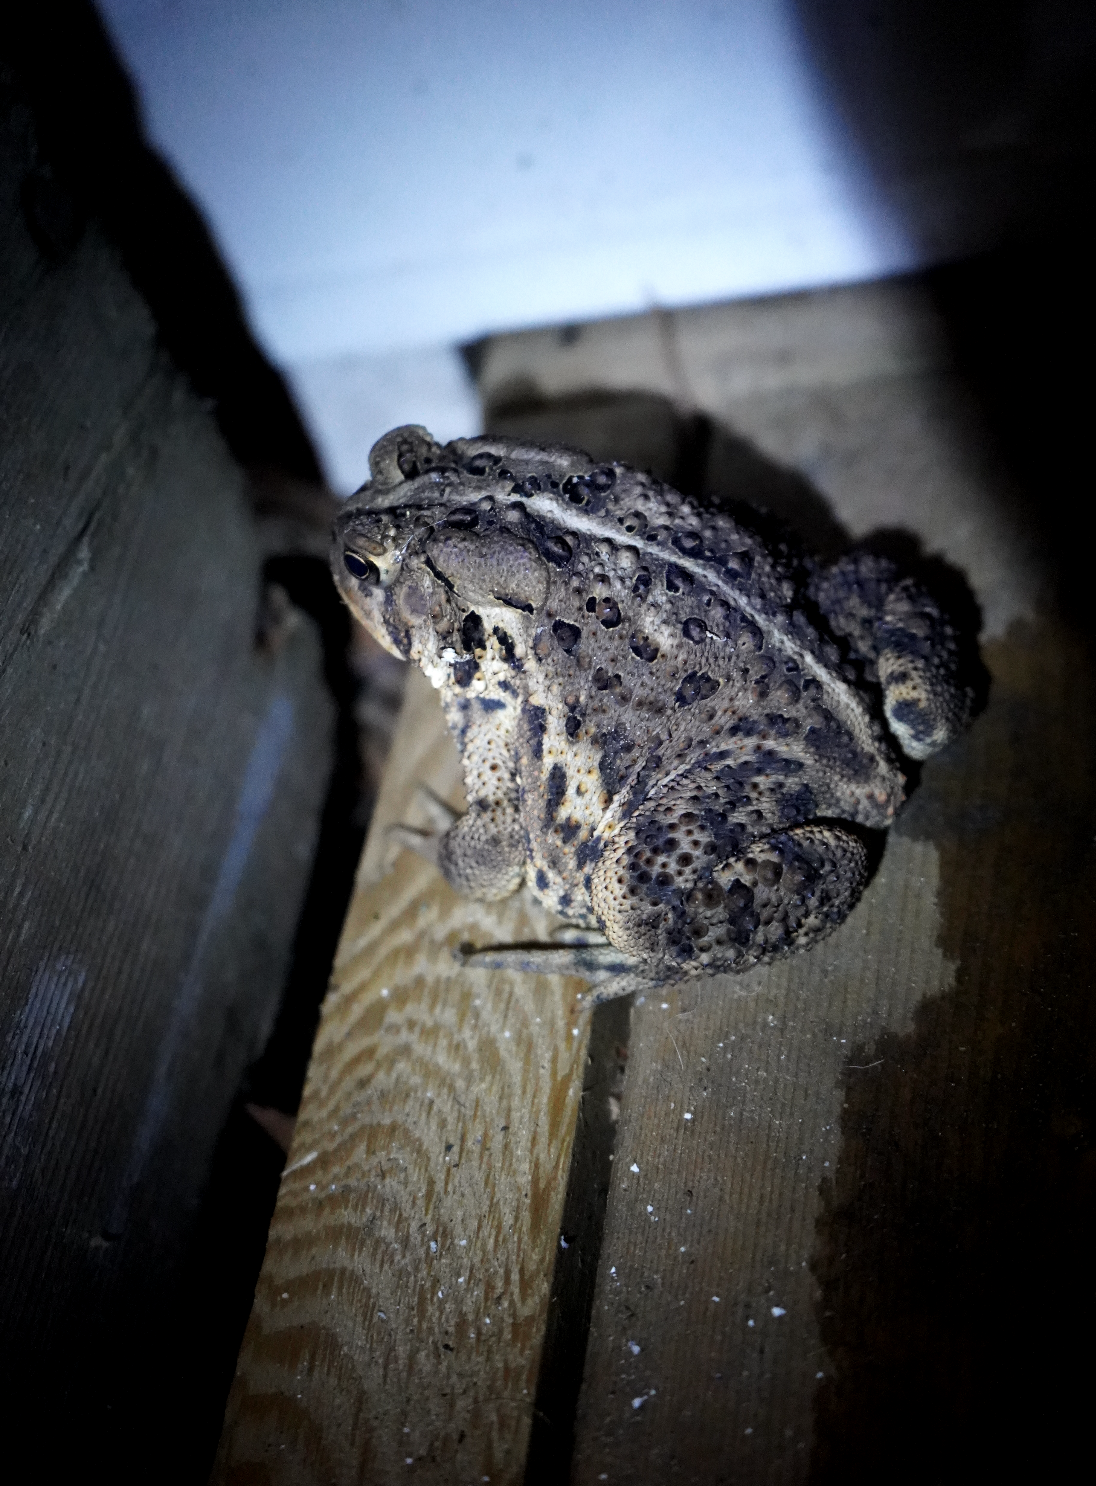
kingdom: Animalia
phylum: Chordata
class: Amphibia
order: Anura
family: Bufonidae
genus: Anaxyrus
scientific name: Anaxyrus americanus
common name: American toad
